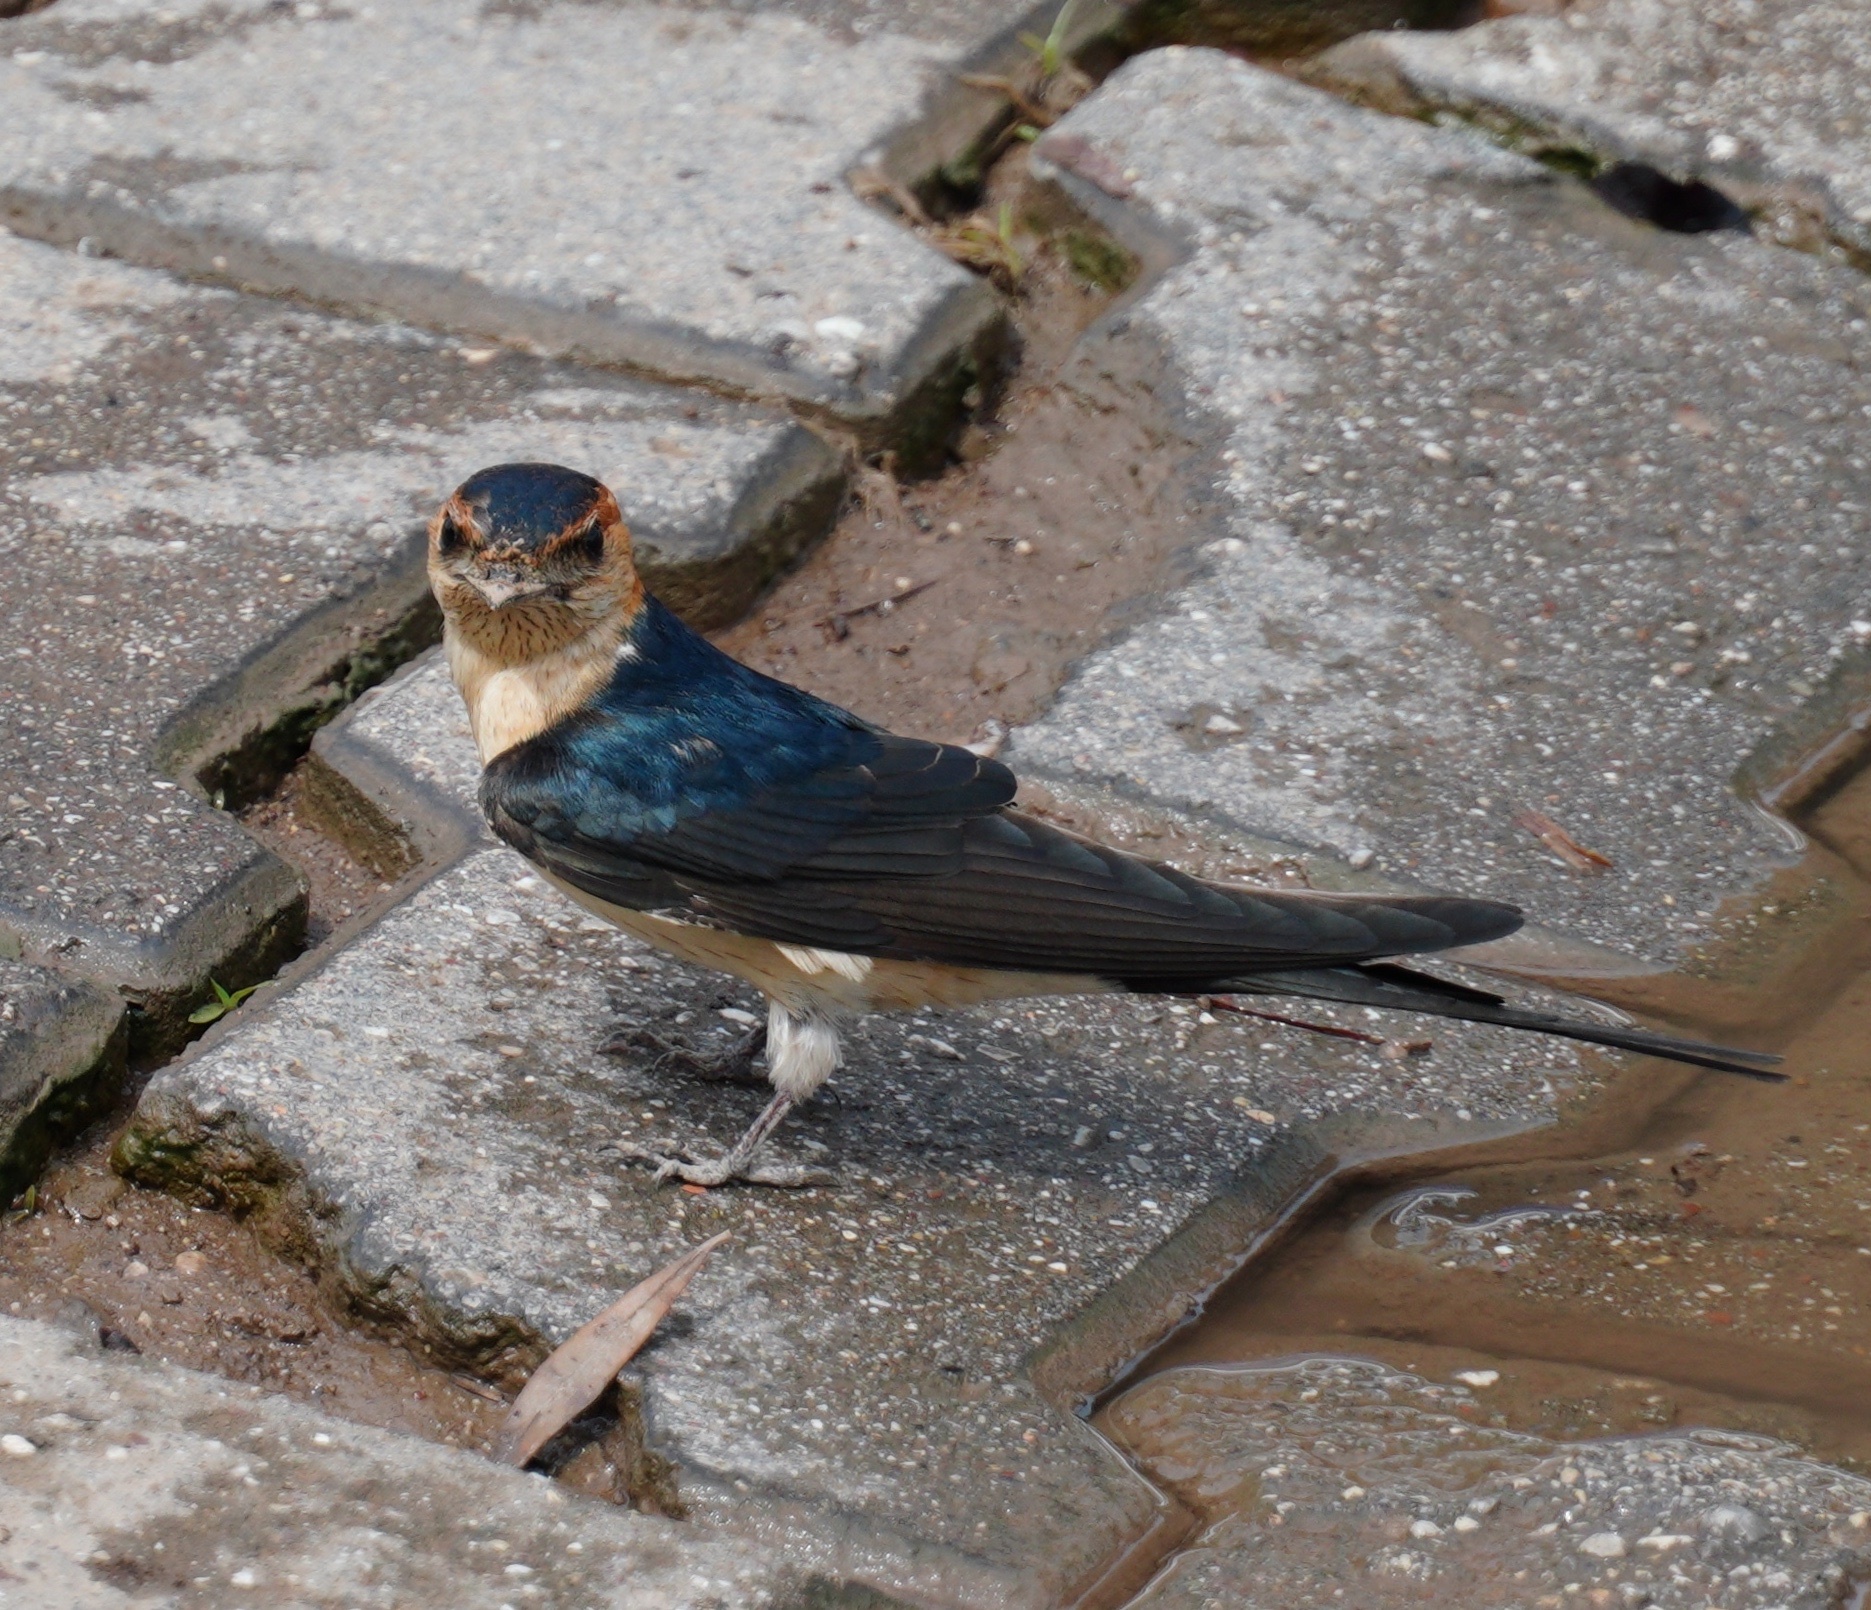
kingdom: Animalia
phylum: Chordata
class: Aves
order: Passeriformes
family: Hirundinidae
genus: Cecropis
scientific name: Cecropis daurica
